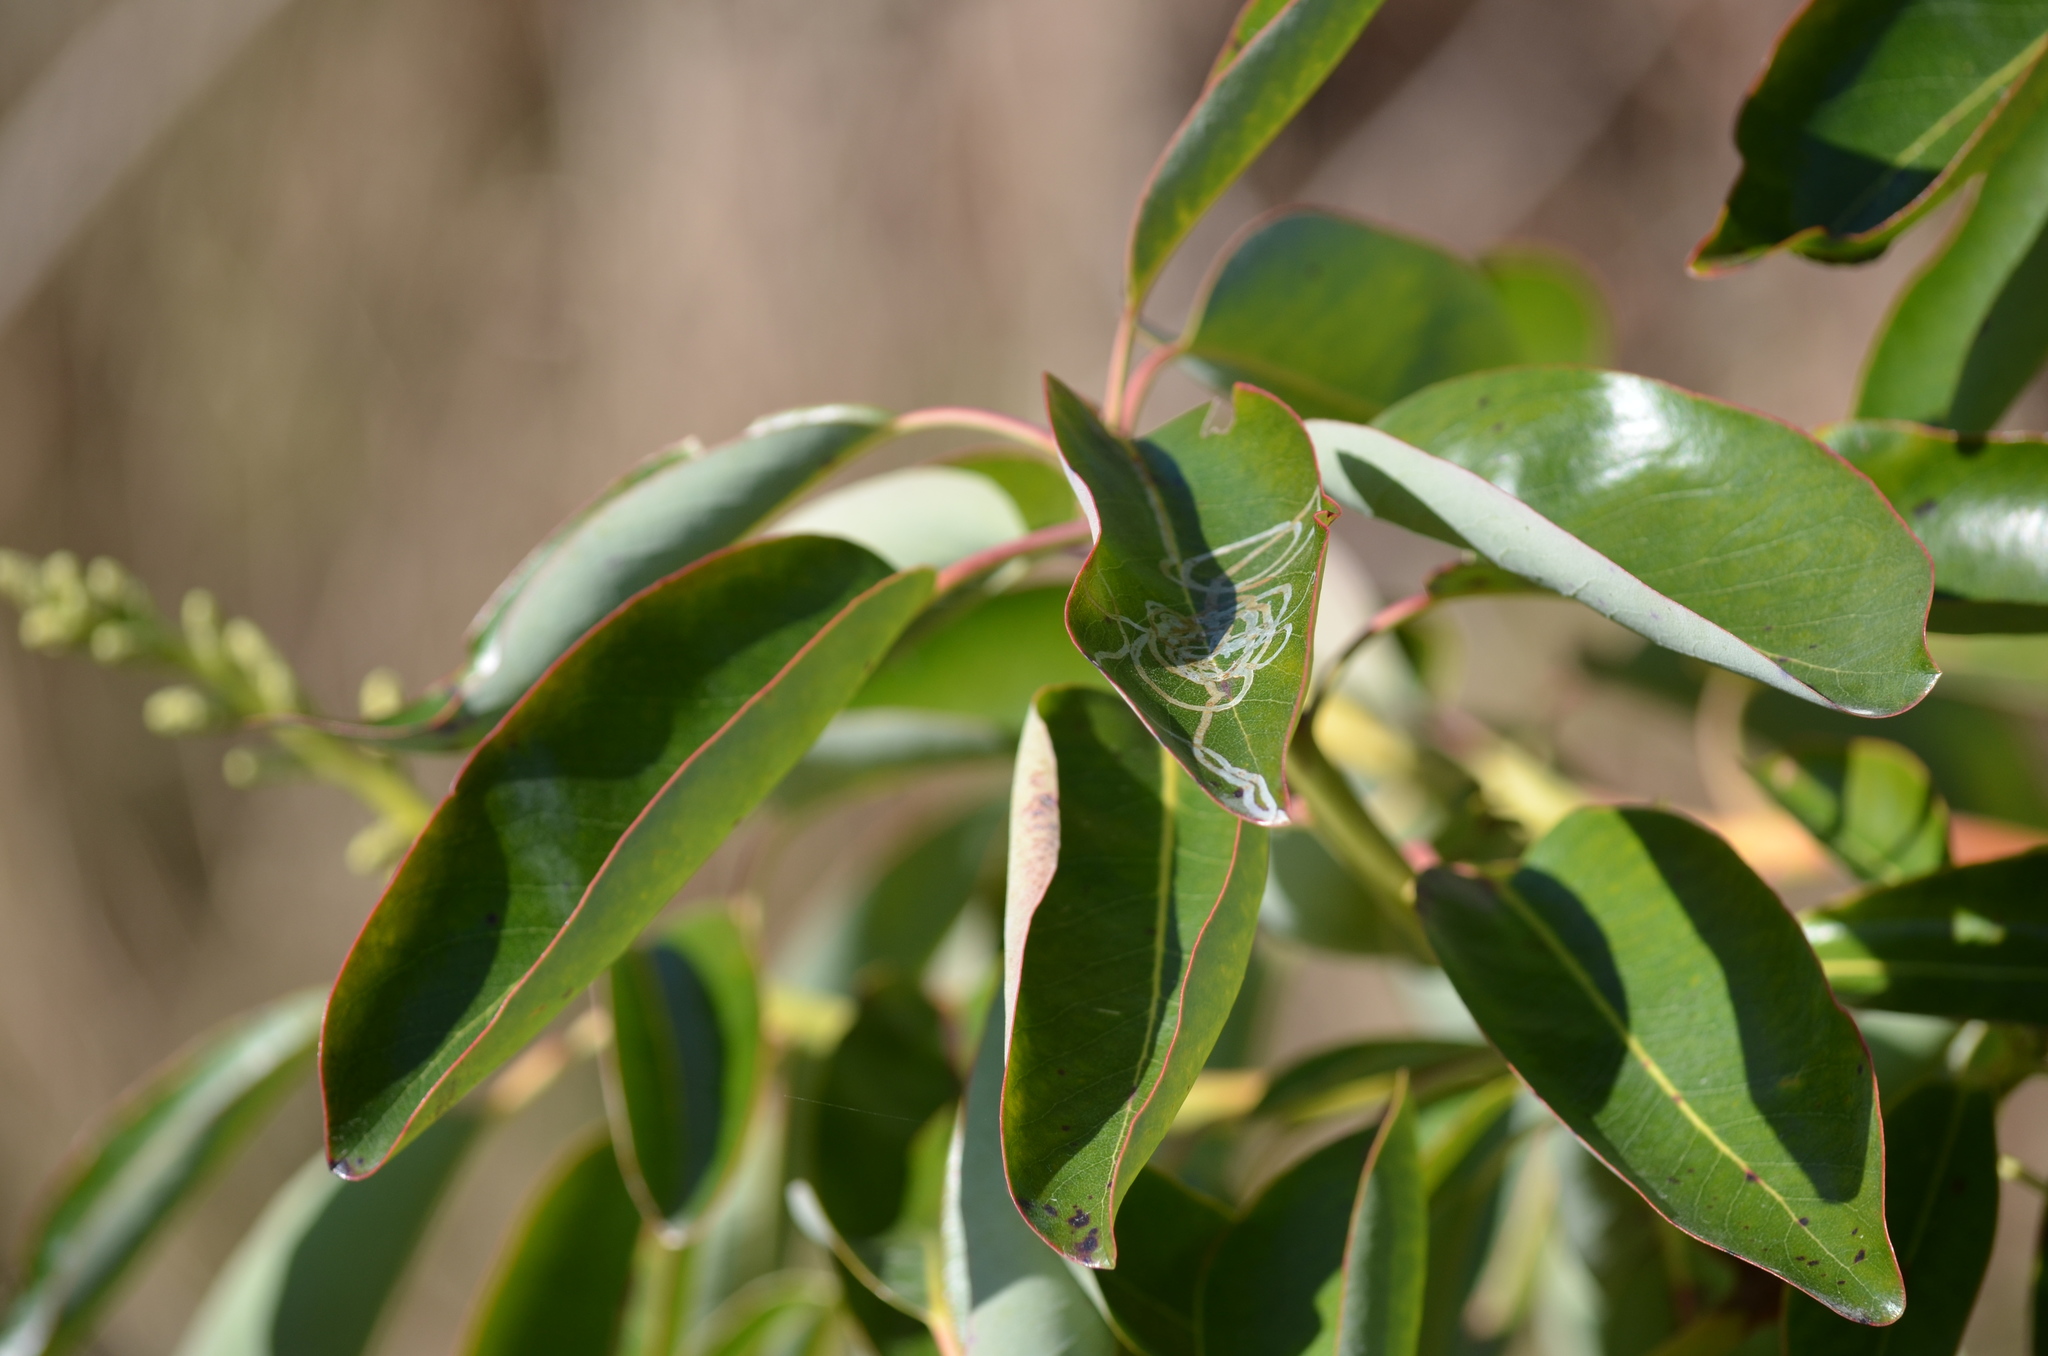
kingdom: Animalia
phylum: Arthropoda
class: Insecta
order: Lepidoptera
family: Gracillariidae
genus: Marmara
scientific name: Marmara arbutiella
